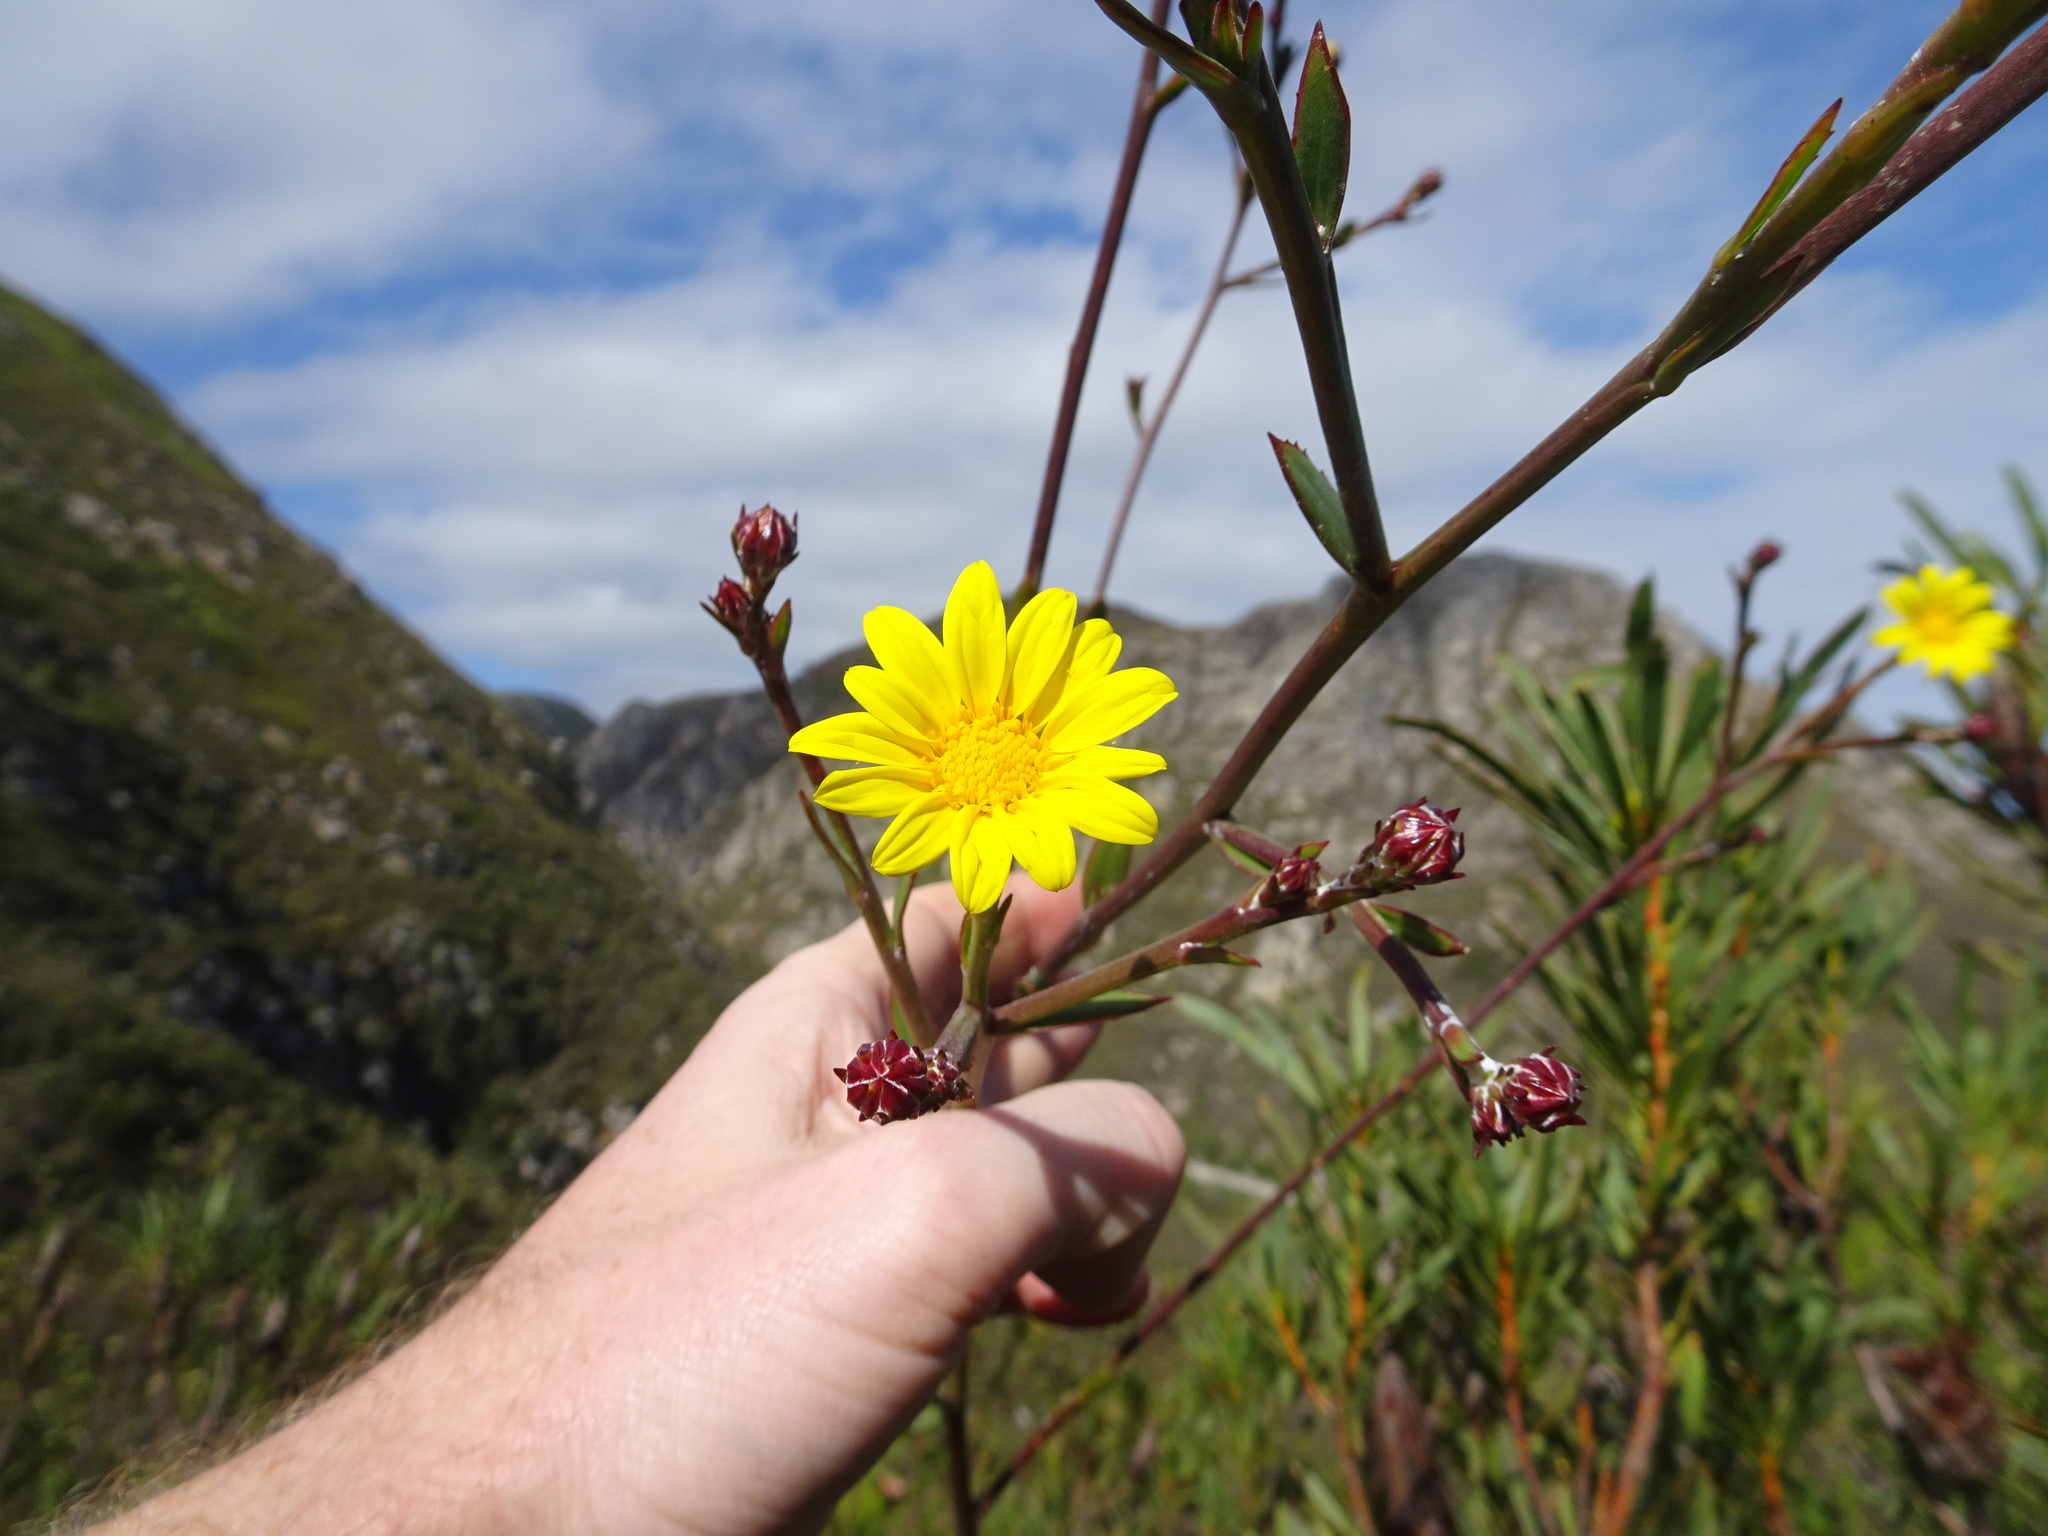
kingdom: Plantae
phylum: Tracheophyta
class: Magnoliopsida
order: Asterales
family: Asteraceae
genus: Osteospermum
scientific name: Osteospermum junceum
